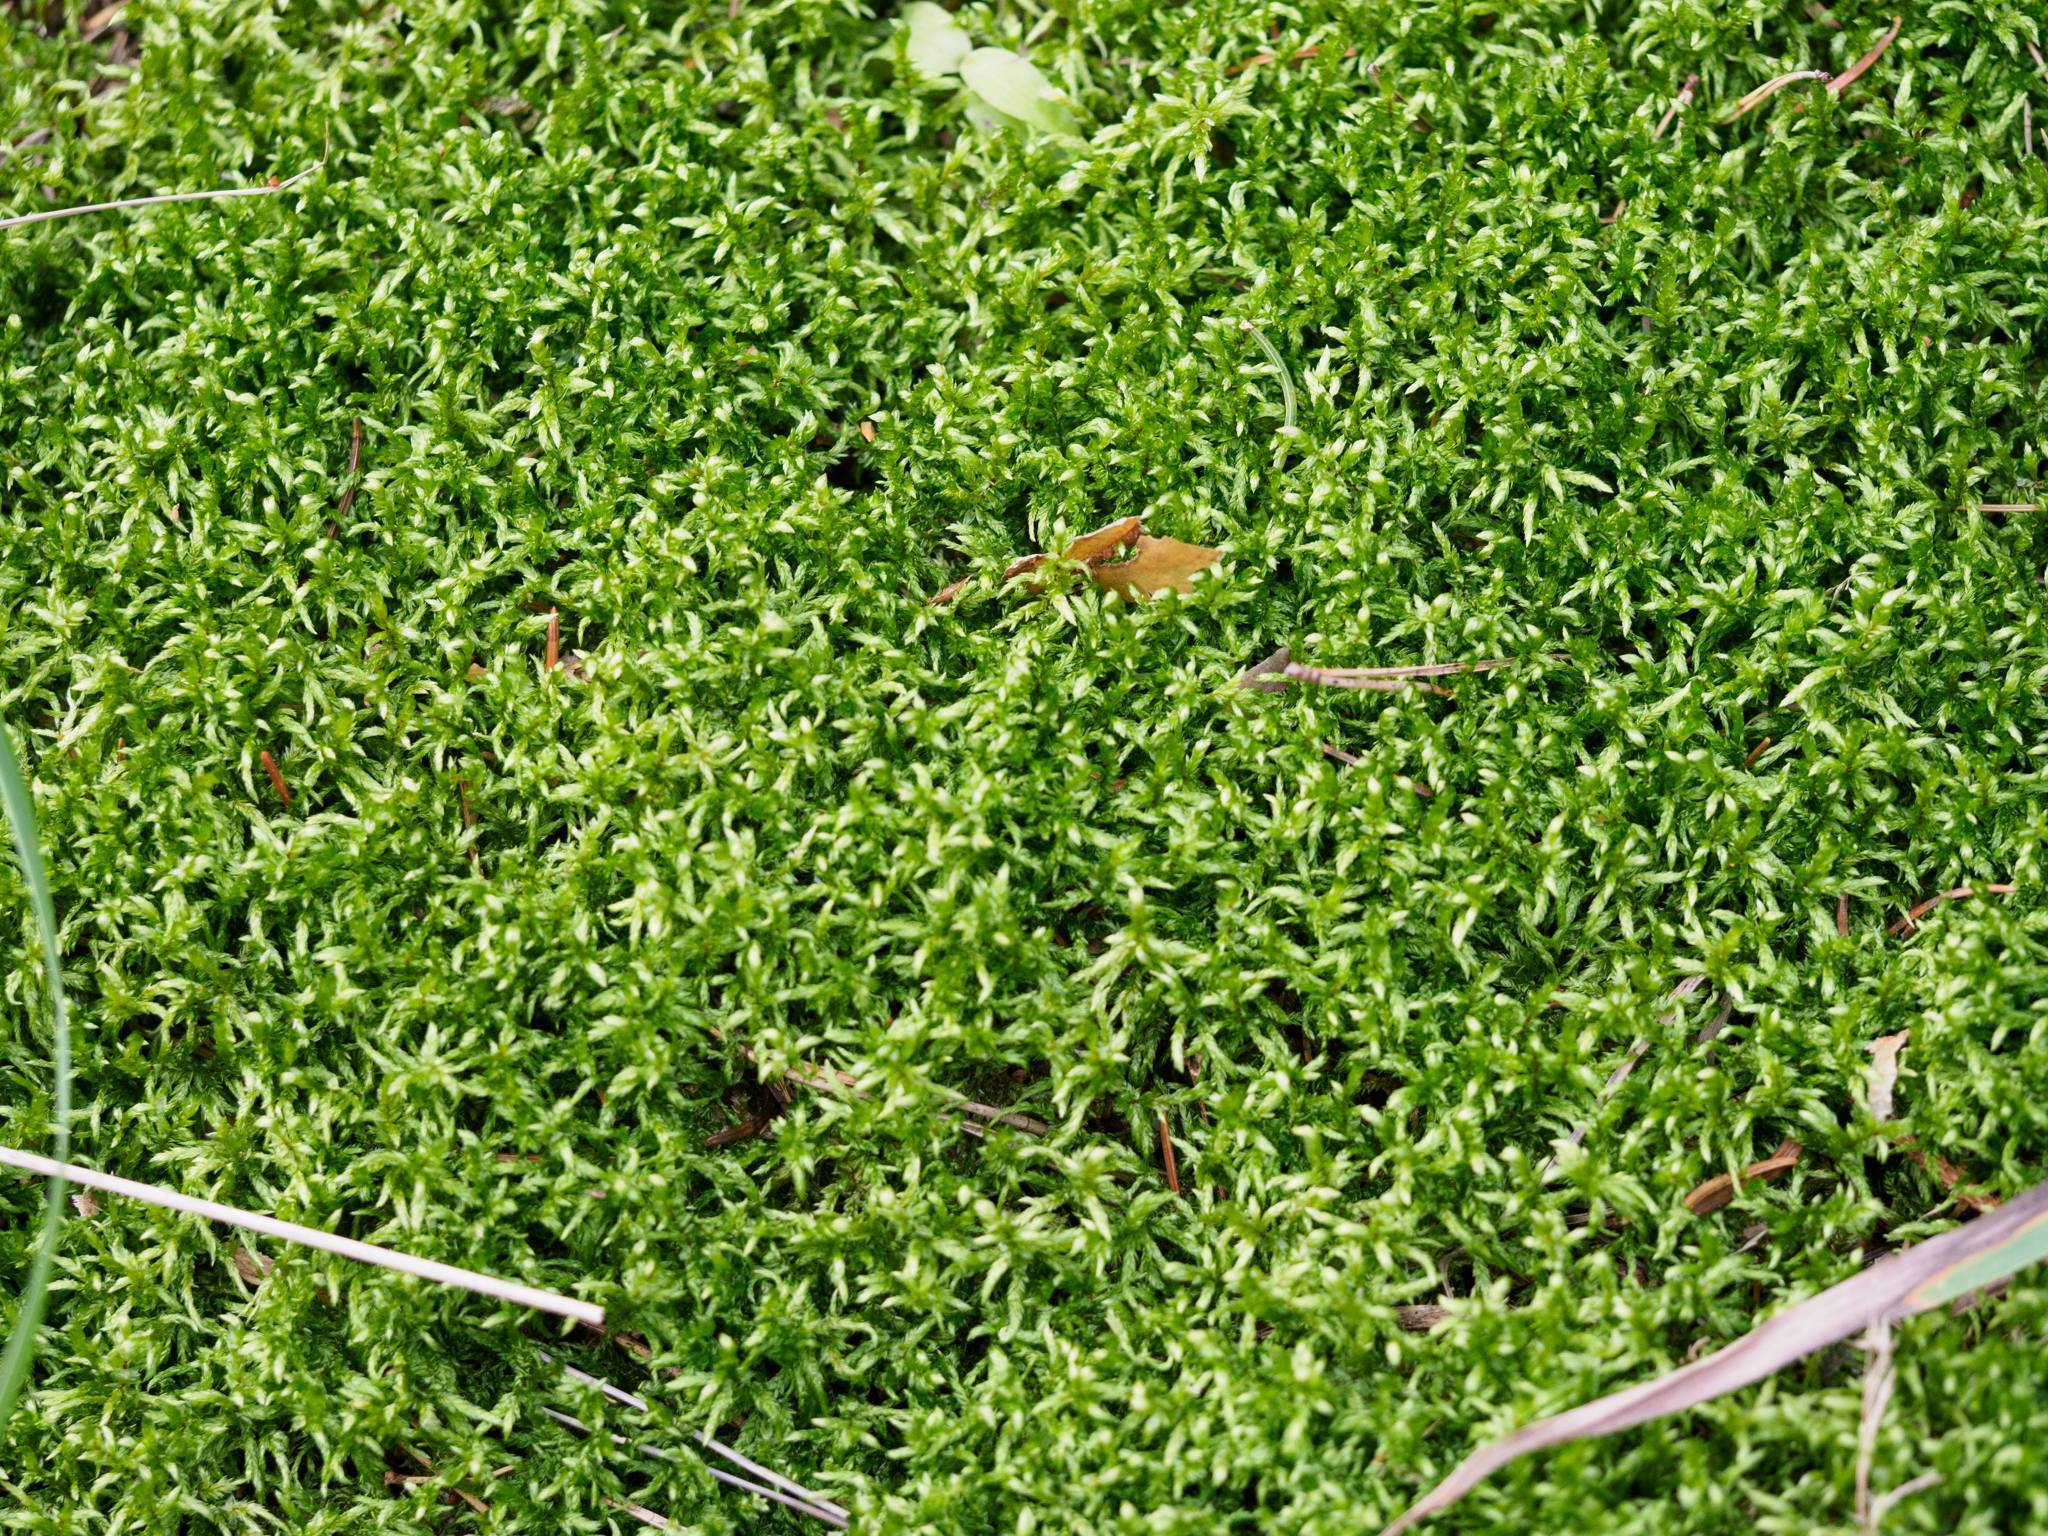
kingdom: Plantae
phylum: Bryophyta
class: Bryopsida
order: Hypnales
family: Hylocomiaceae
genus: Pleurozium
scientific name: Pleurozium schreberi
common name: Red-stemmed feather moss
